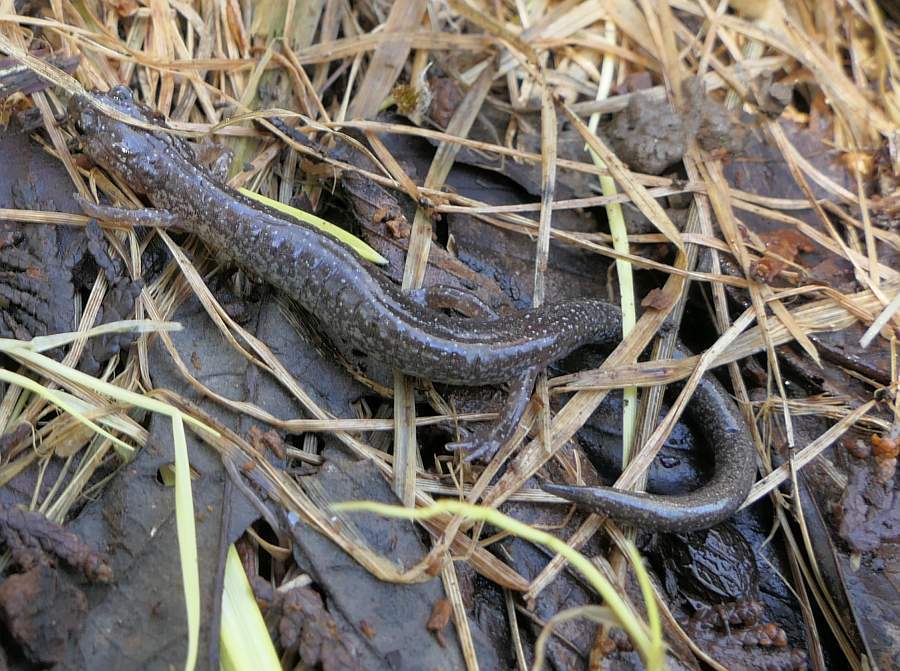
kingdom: Animalia
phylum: Chordata
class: Amphibia
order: Caudata
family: Plethodontidae
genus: Plethodon
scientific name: Plethodon cinereus
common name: Redback salamander
